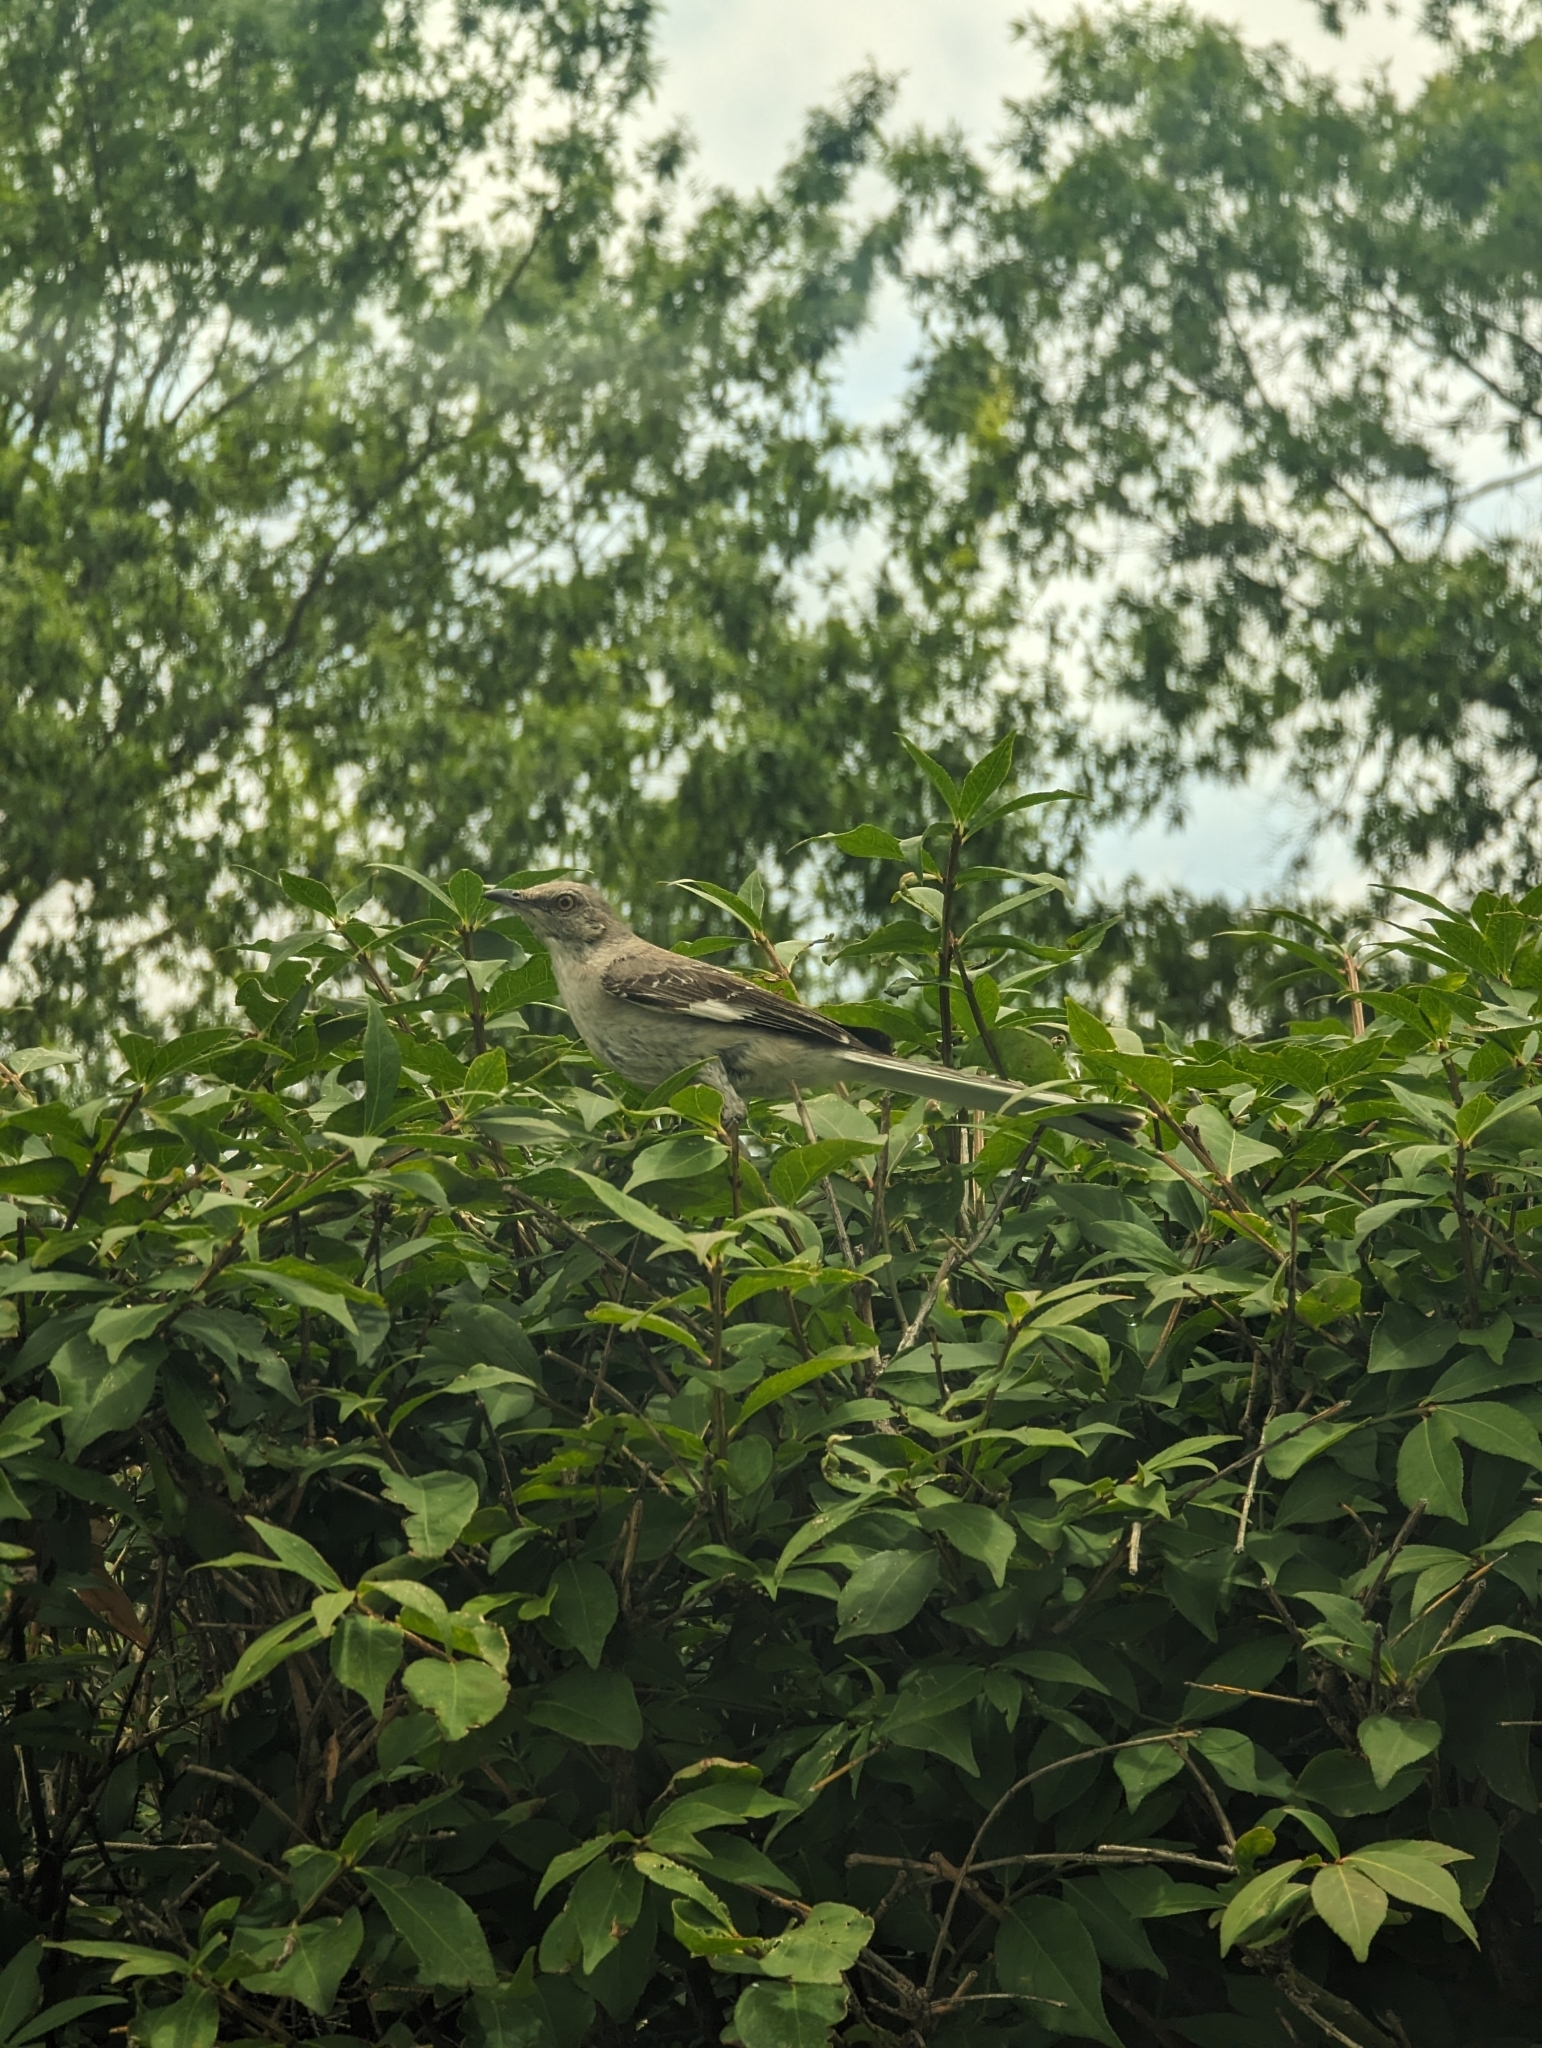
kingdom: Animalia
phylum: Chordata
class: Aves
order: Passeriformes
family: Mimidae
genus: Mimus
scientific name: Mimus polyglottos
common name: Northern mockingbird
